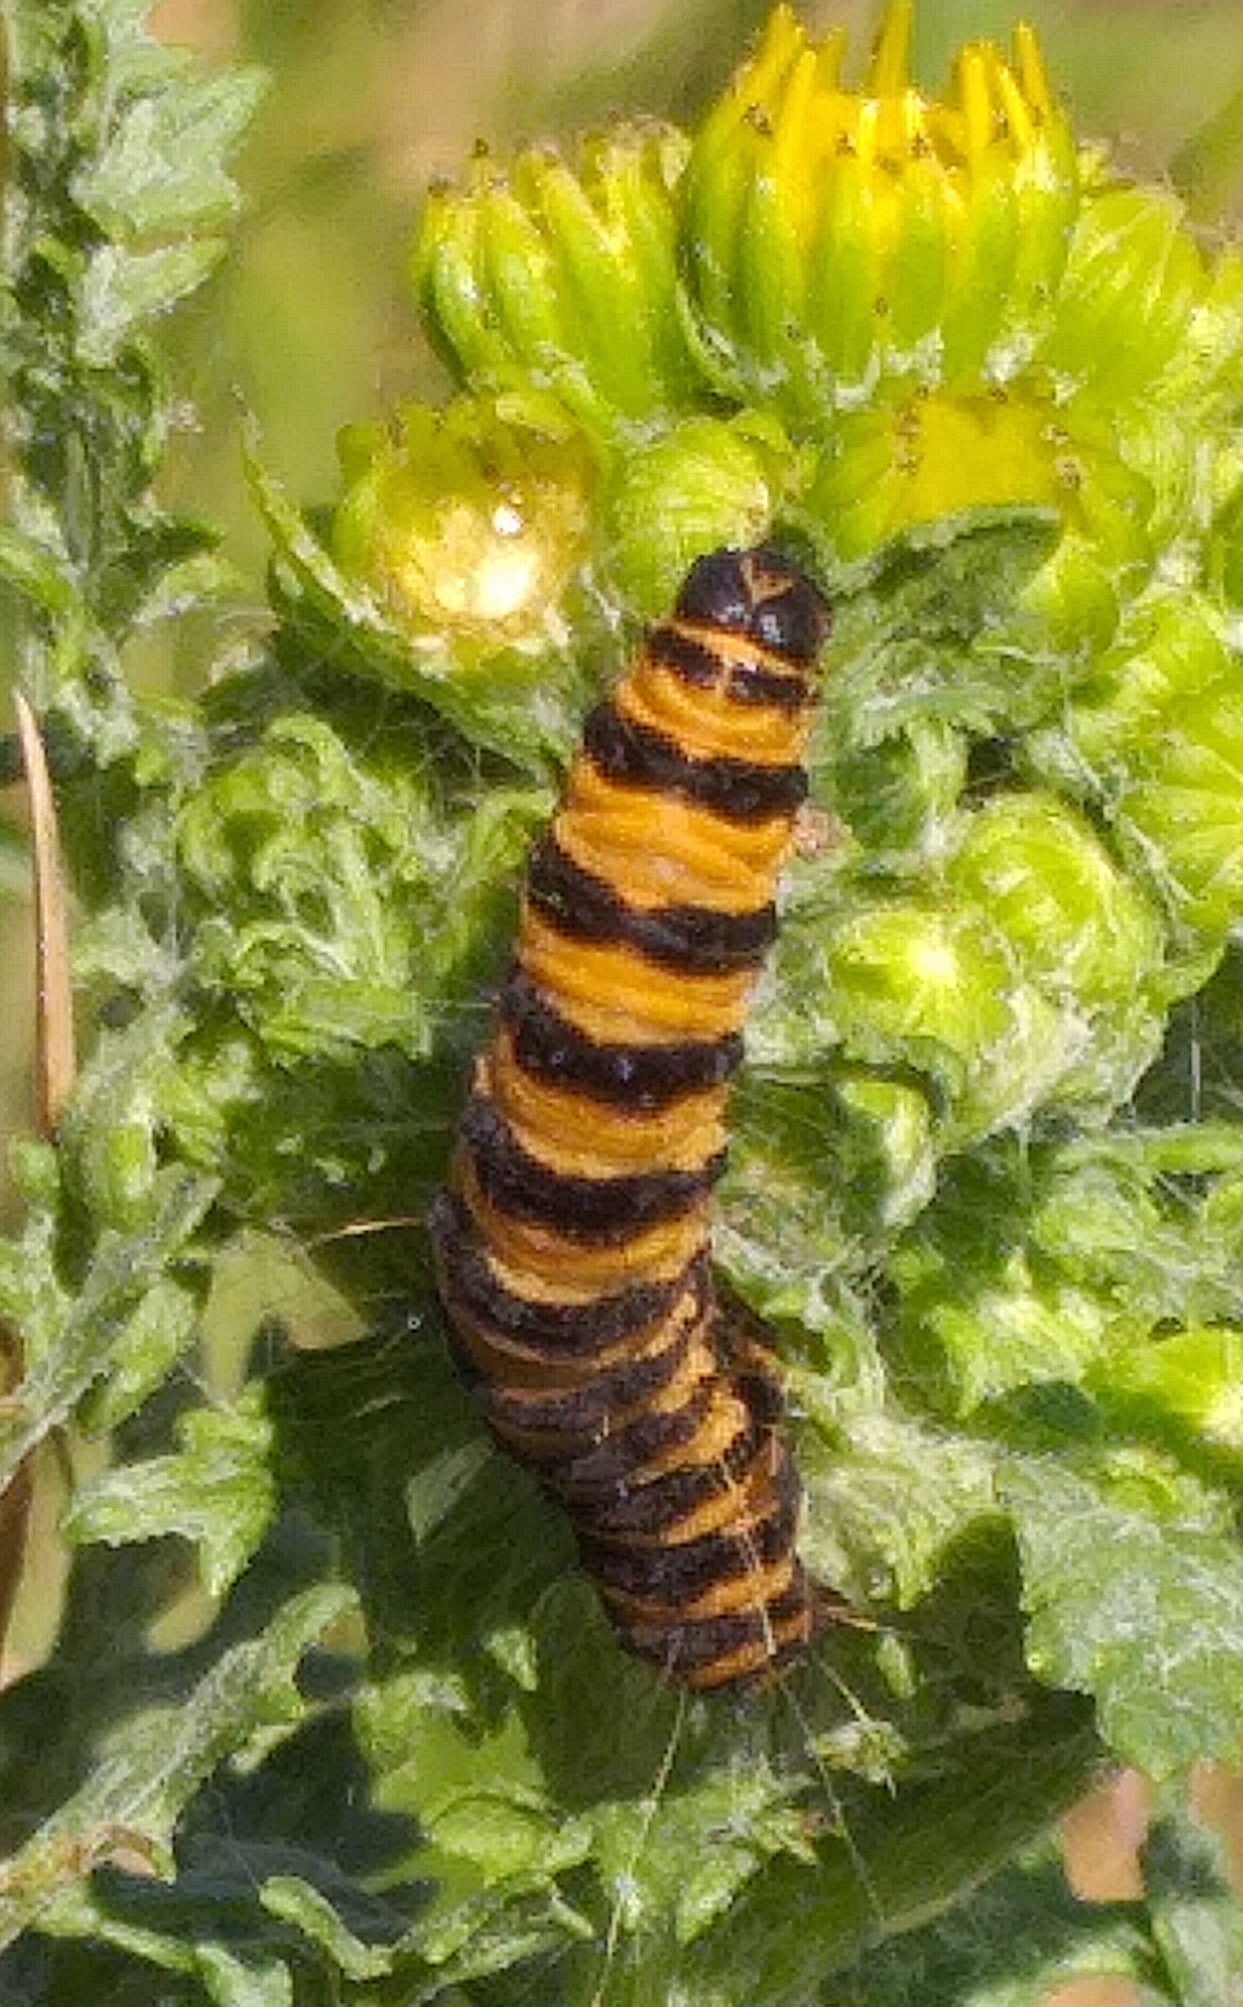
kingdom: Animalia
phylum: Arthropoda
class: Insecta
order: Lepidoptera
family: Erebidae
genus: Tyria
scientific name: Tyria jacobaeae
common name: Cinnabar
